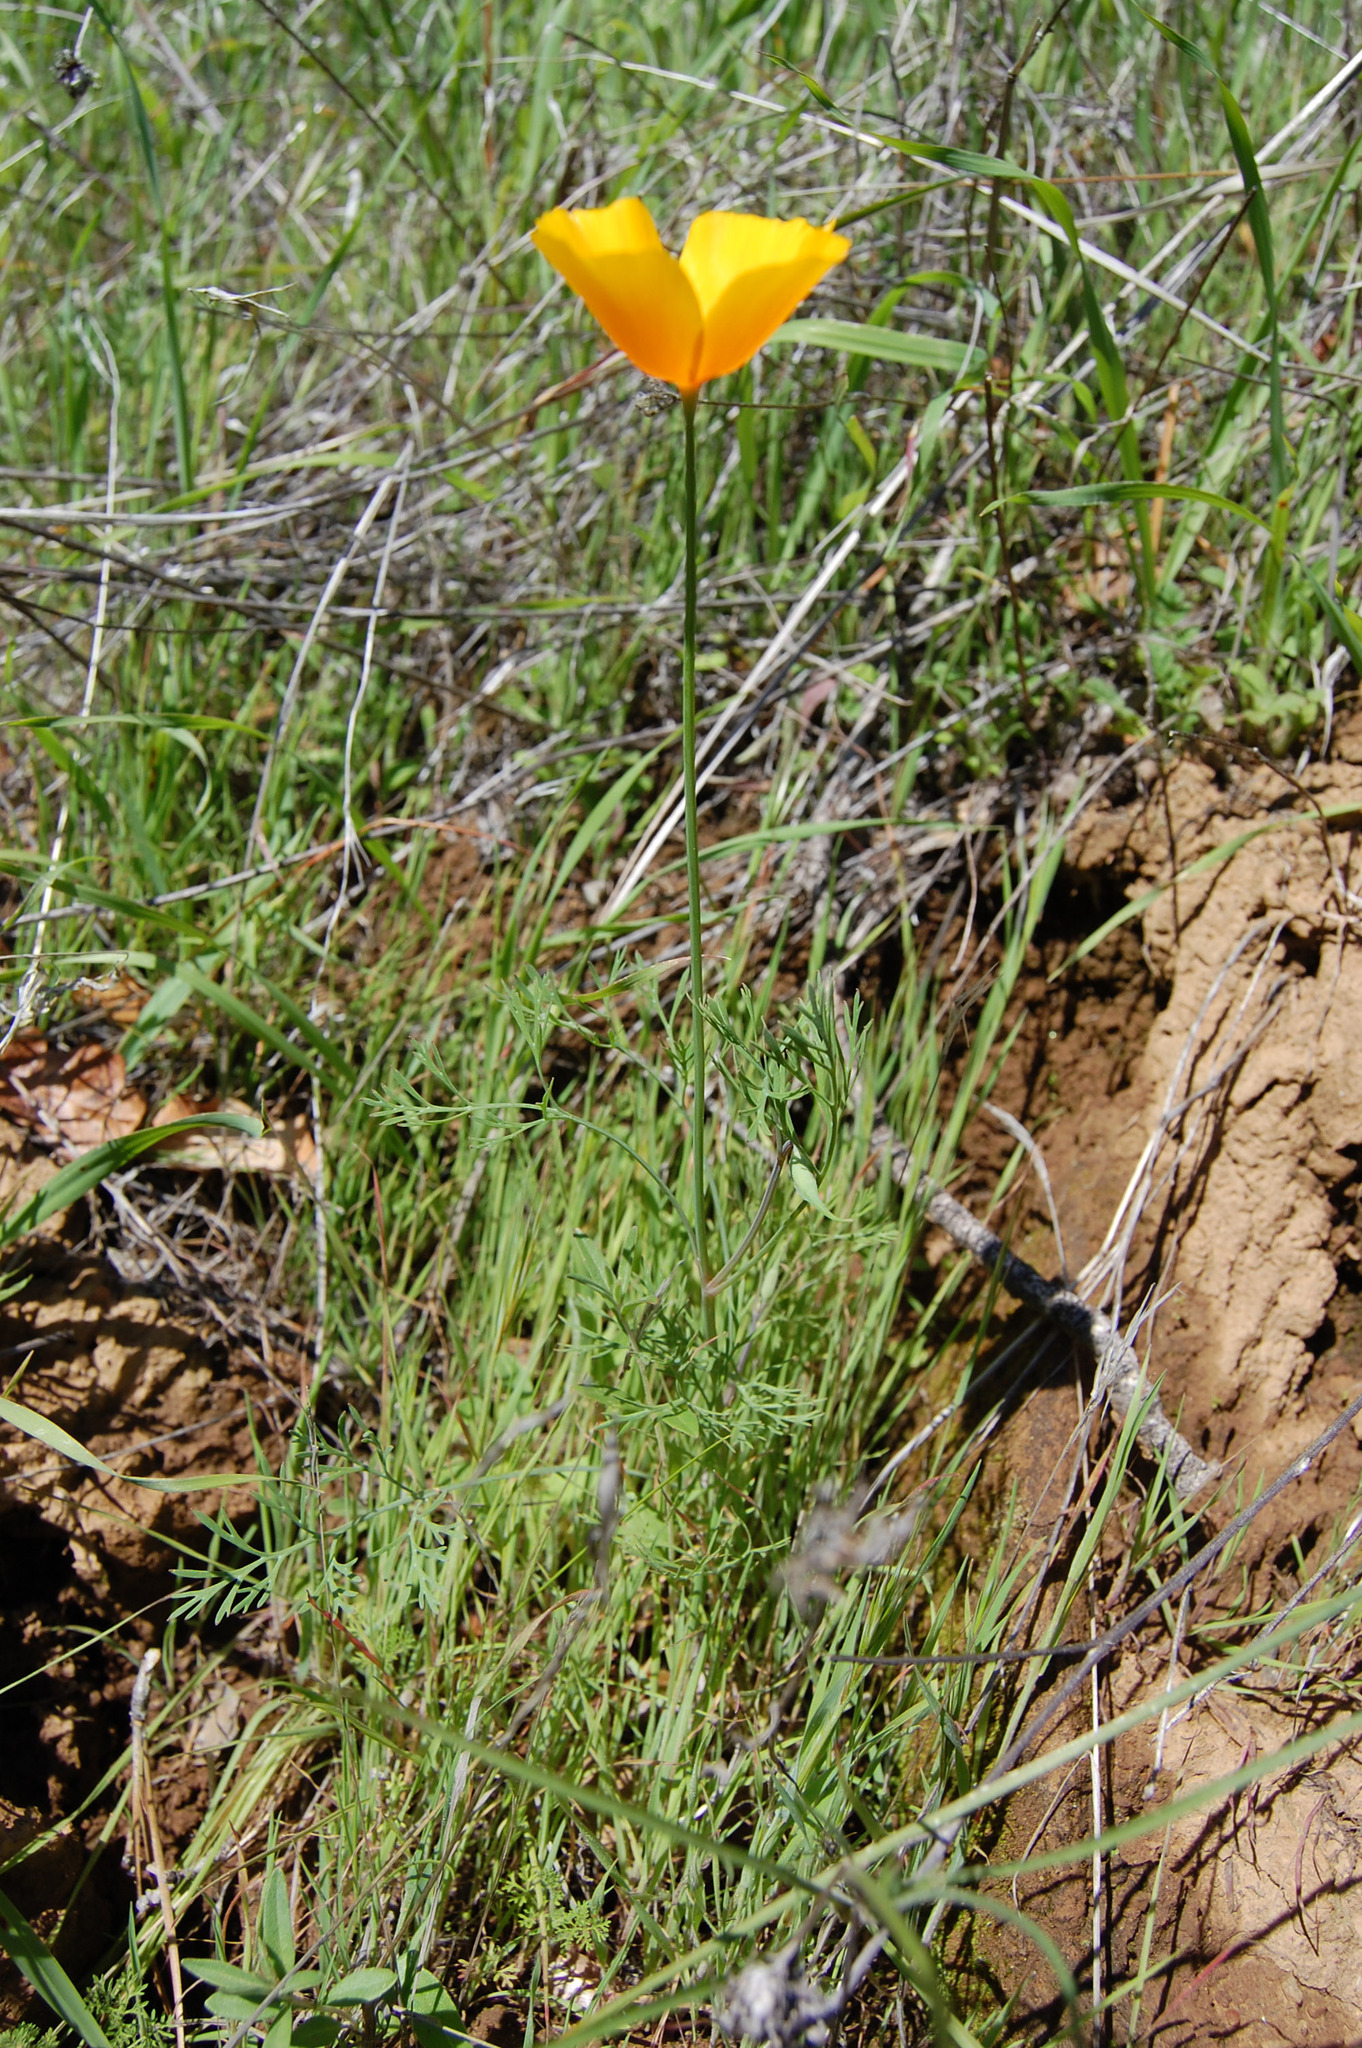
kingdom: Plantae
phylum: Tracheophyta
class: Magnoliopsida
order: Ranunculales
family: Papaveraceae
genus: Eschscholzia
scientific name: Eschscholzia caespitosa
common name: Tufted california-poppy
